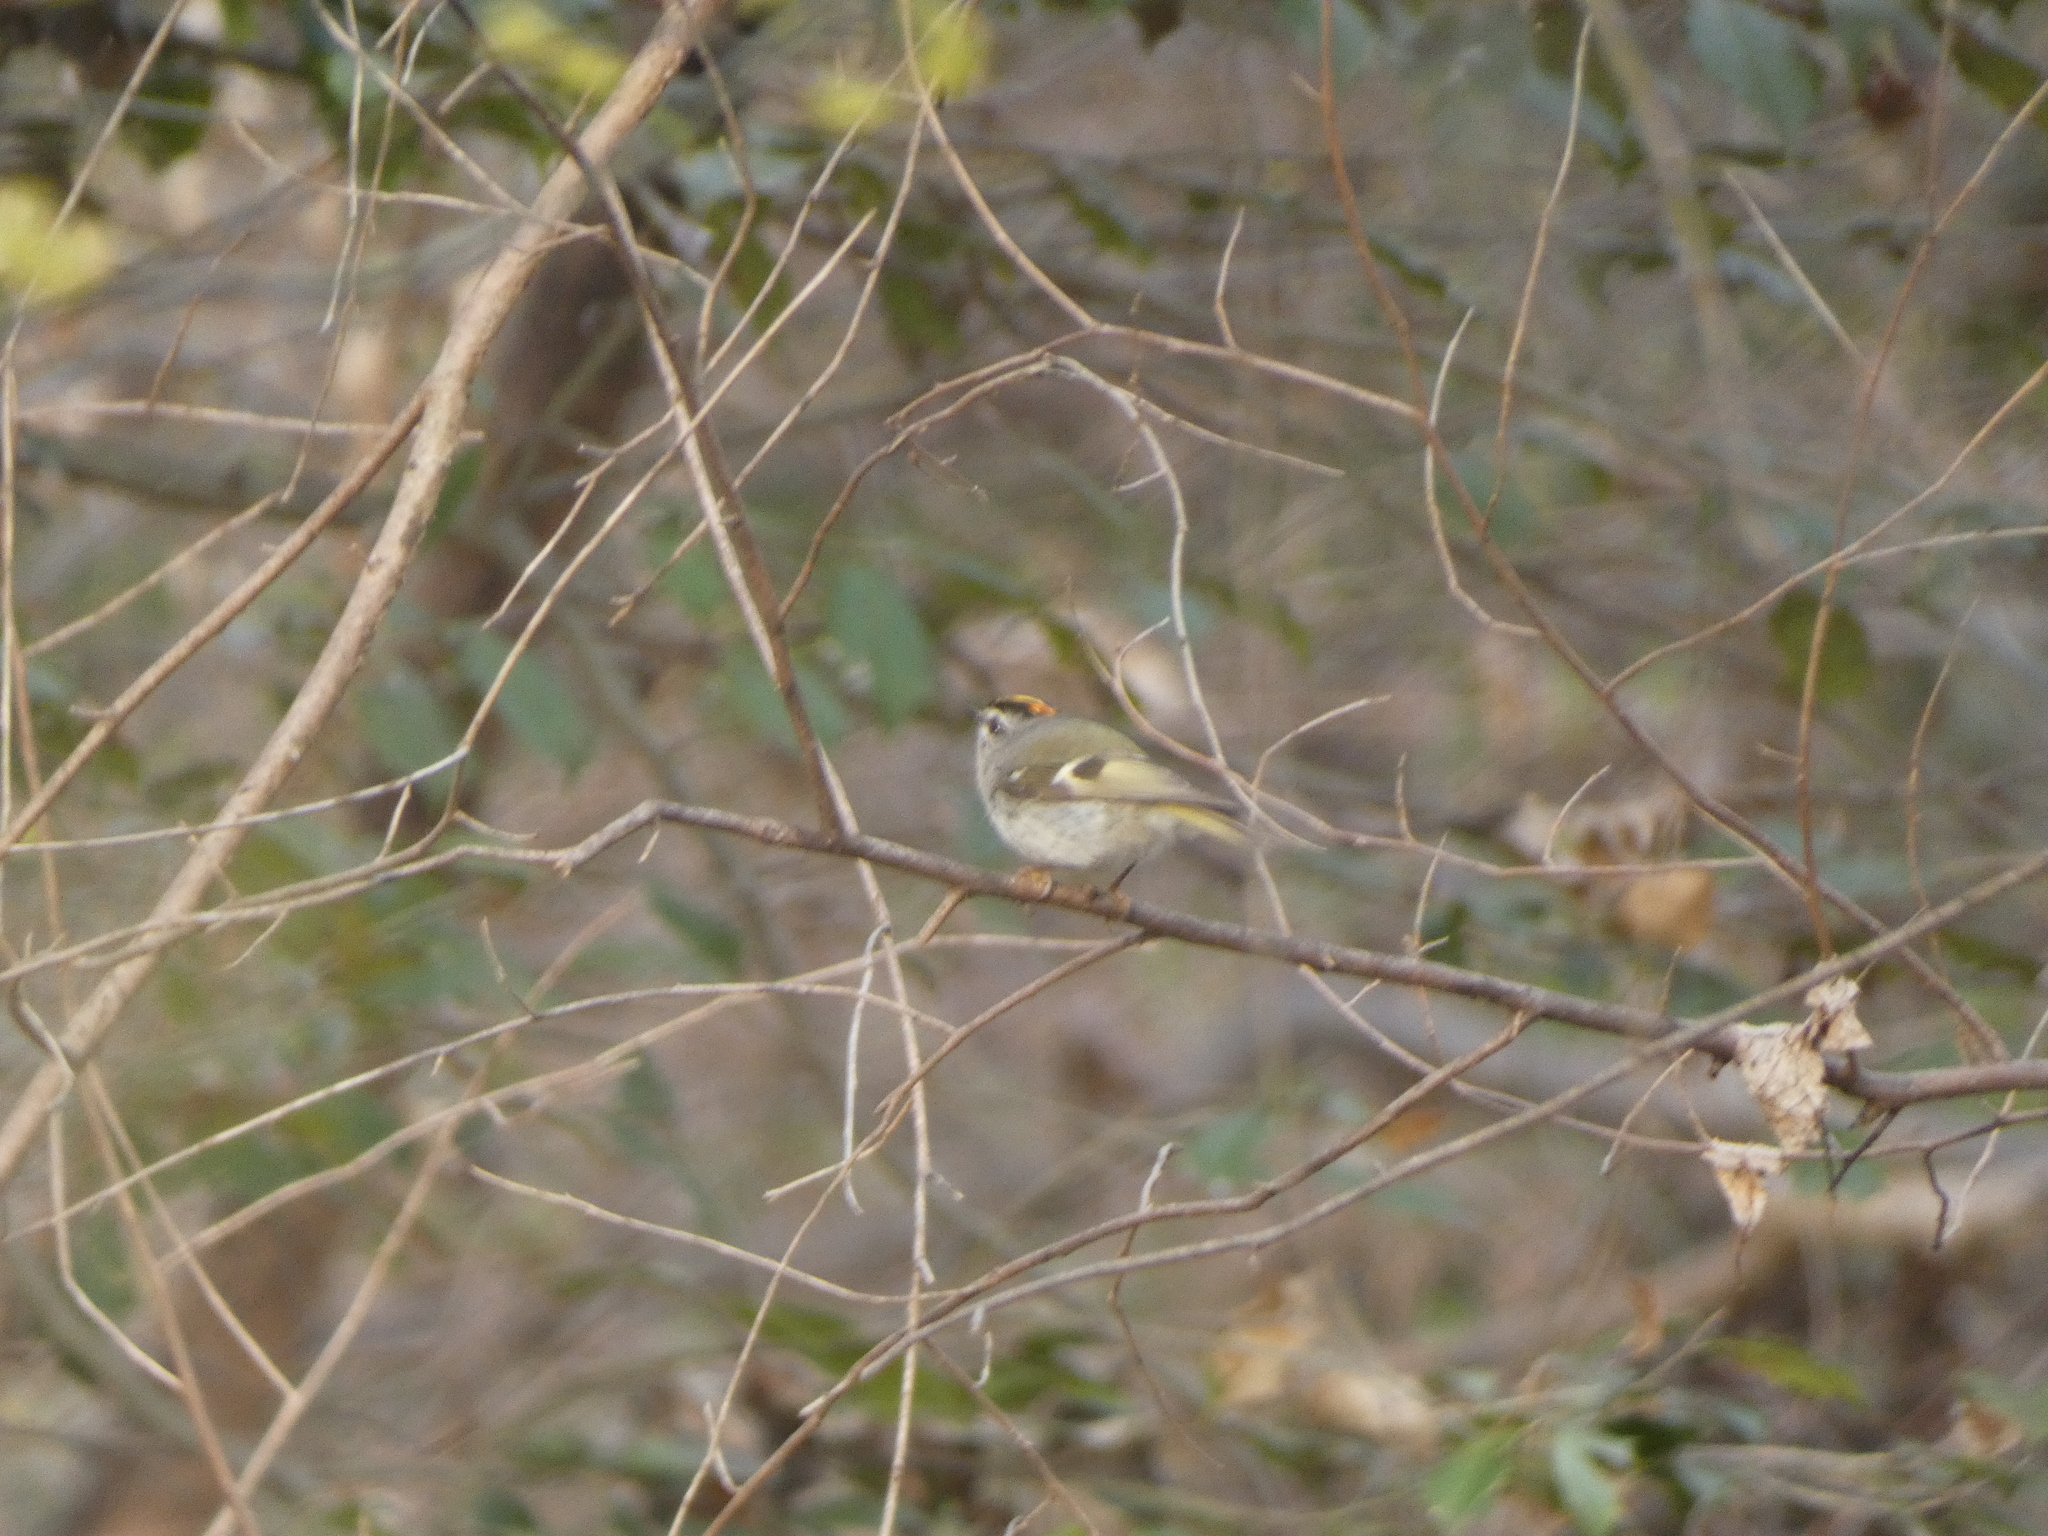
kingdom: Animalia
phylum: Chordata
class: Aves
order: Passeriformes
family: Regulidae
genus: Regulus
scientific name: Regulus satrapa
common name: Golden-crowned kinglet
